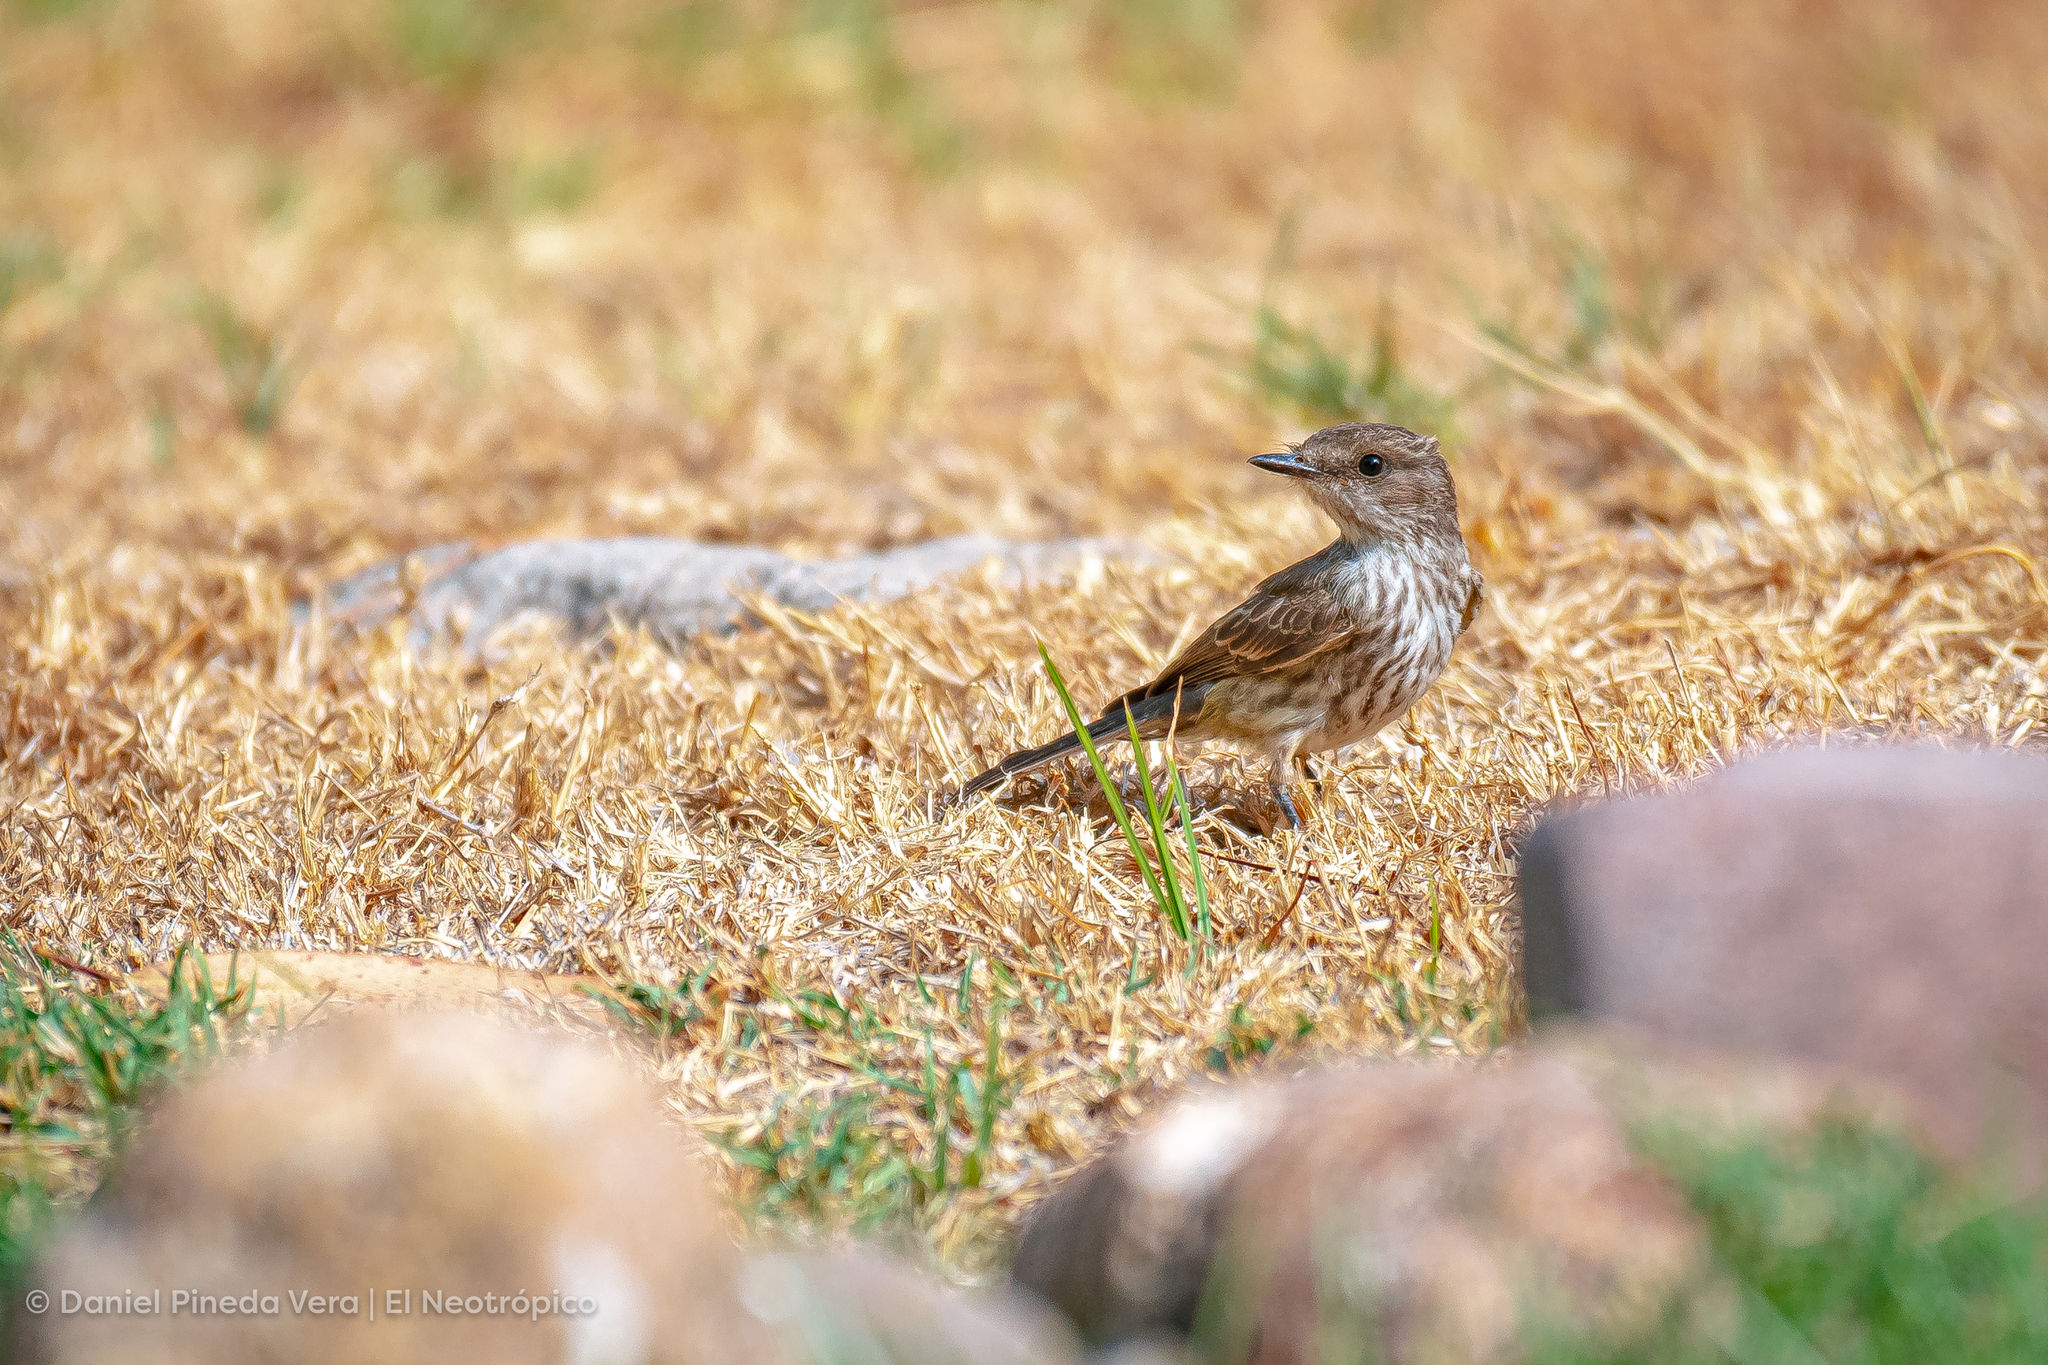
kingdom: Animalia
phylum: Chordata
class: Aves
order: Passeriformes
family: Tyrannidae
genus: Pyrocephalus
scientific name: Pyrocephalus rubinus
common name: Vermilion flycatcher
